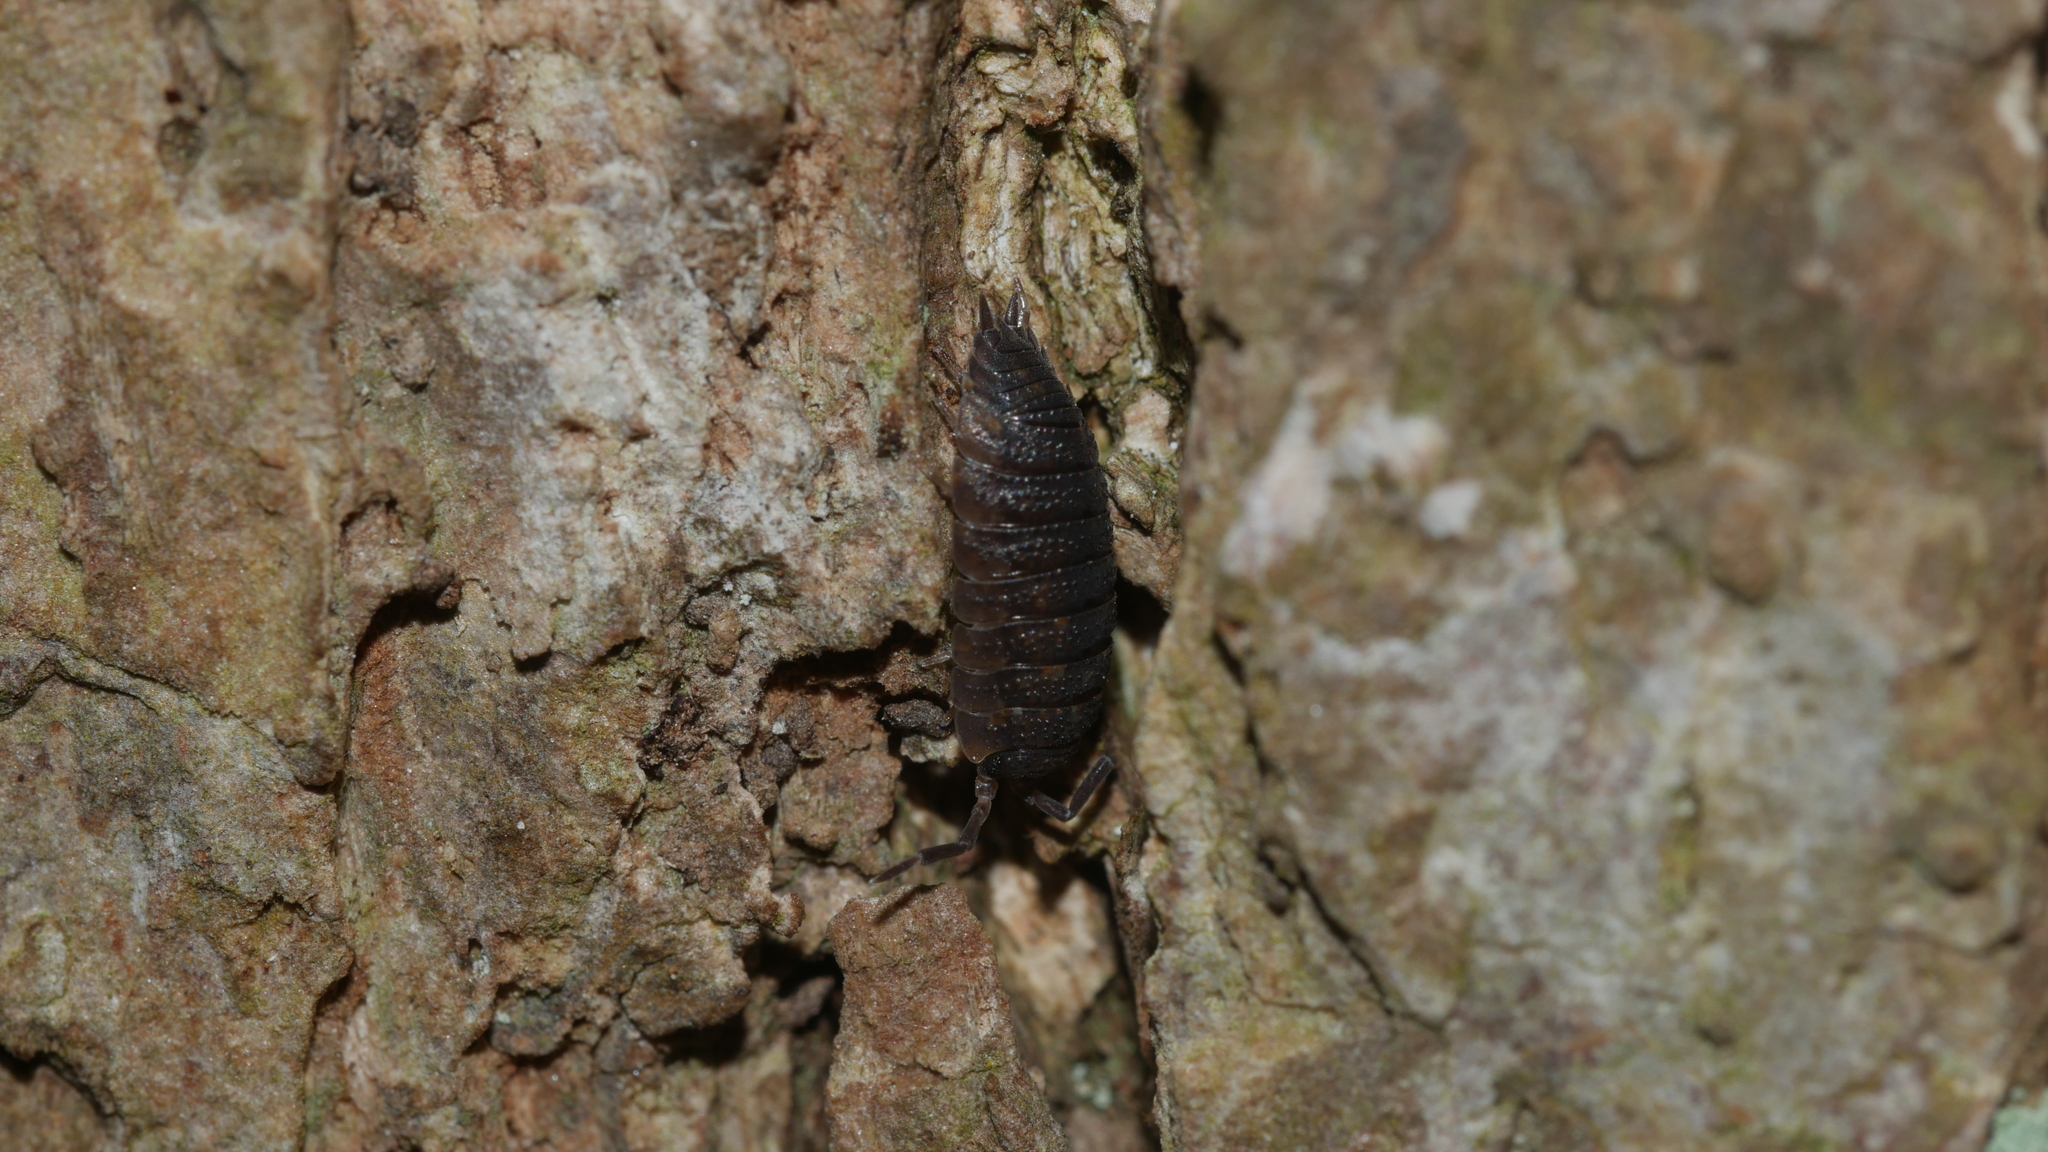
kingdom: Animalia
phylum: Arthropoda
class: Malacostraca
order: Isopoda
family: Porcellionidae
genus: Porcellio
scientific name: Porcellio scaber
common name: Common rough woodlouse
